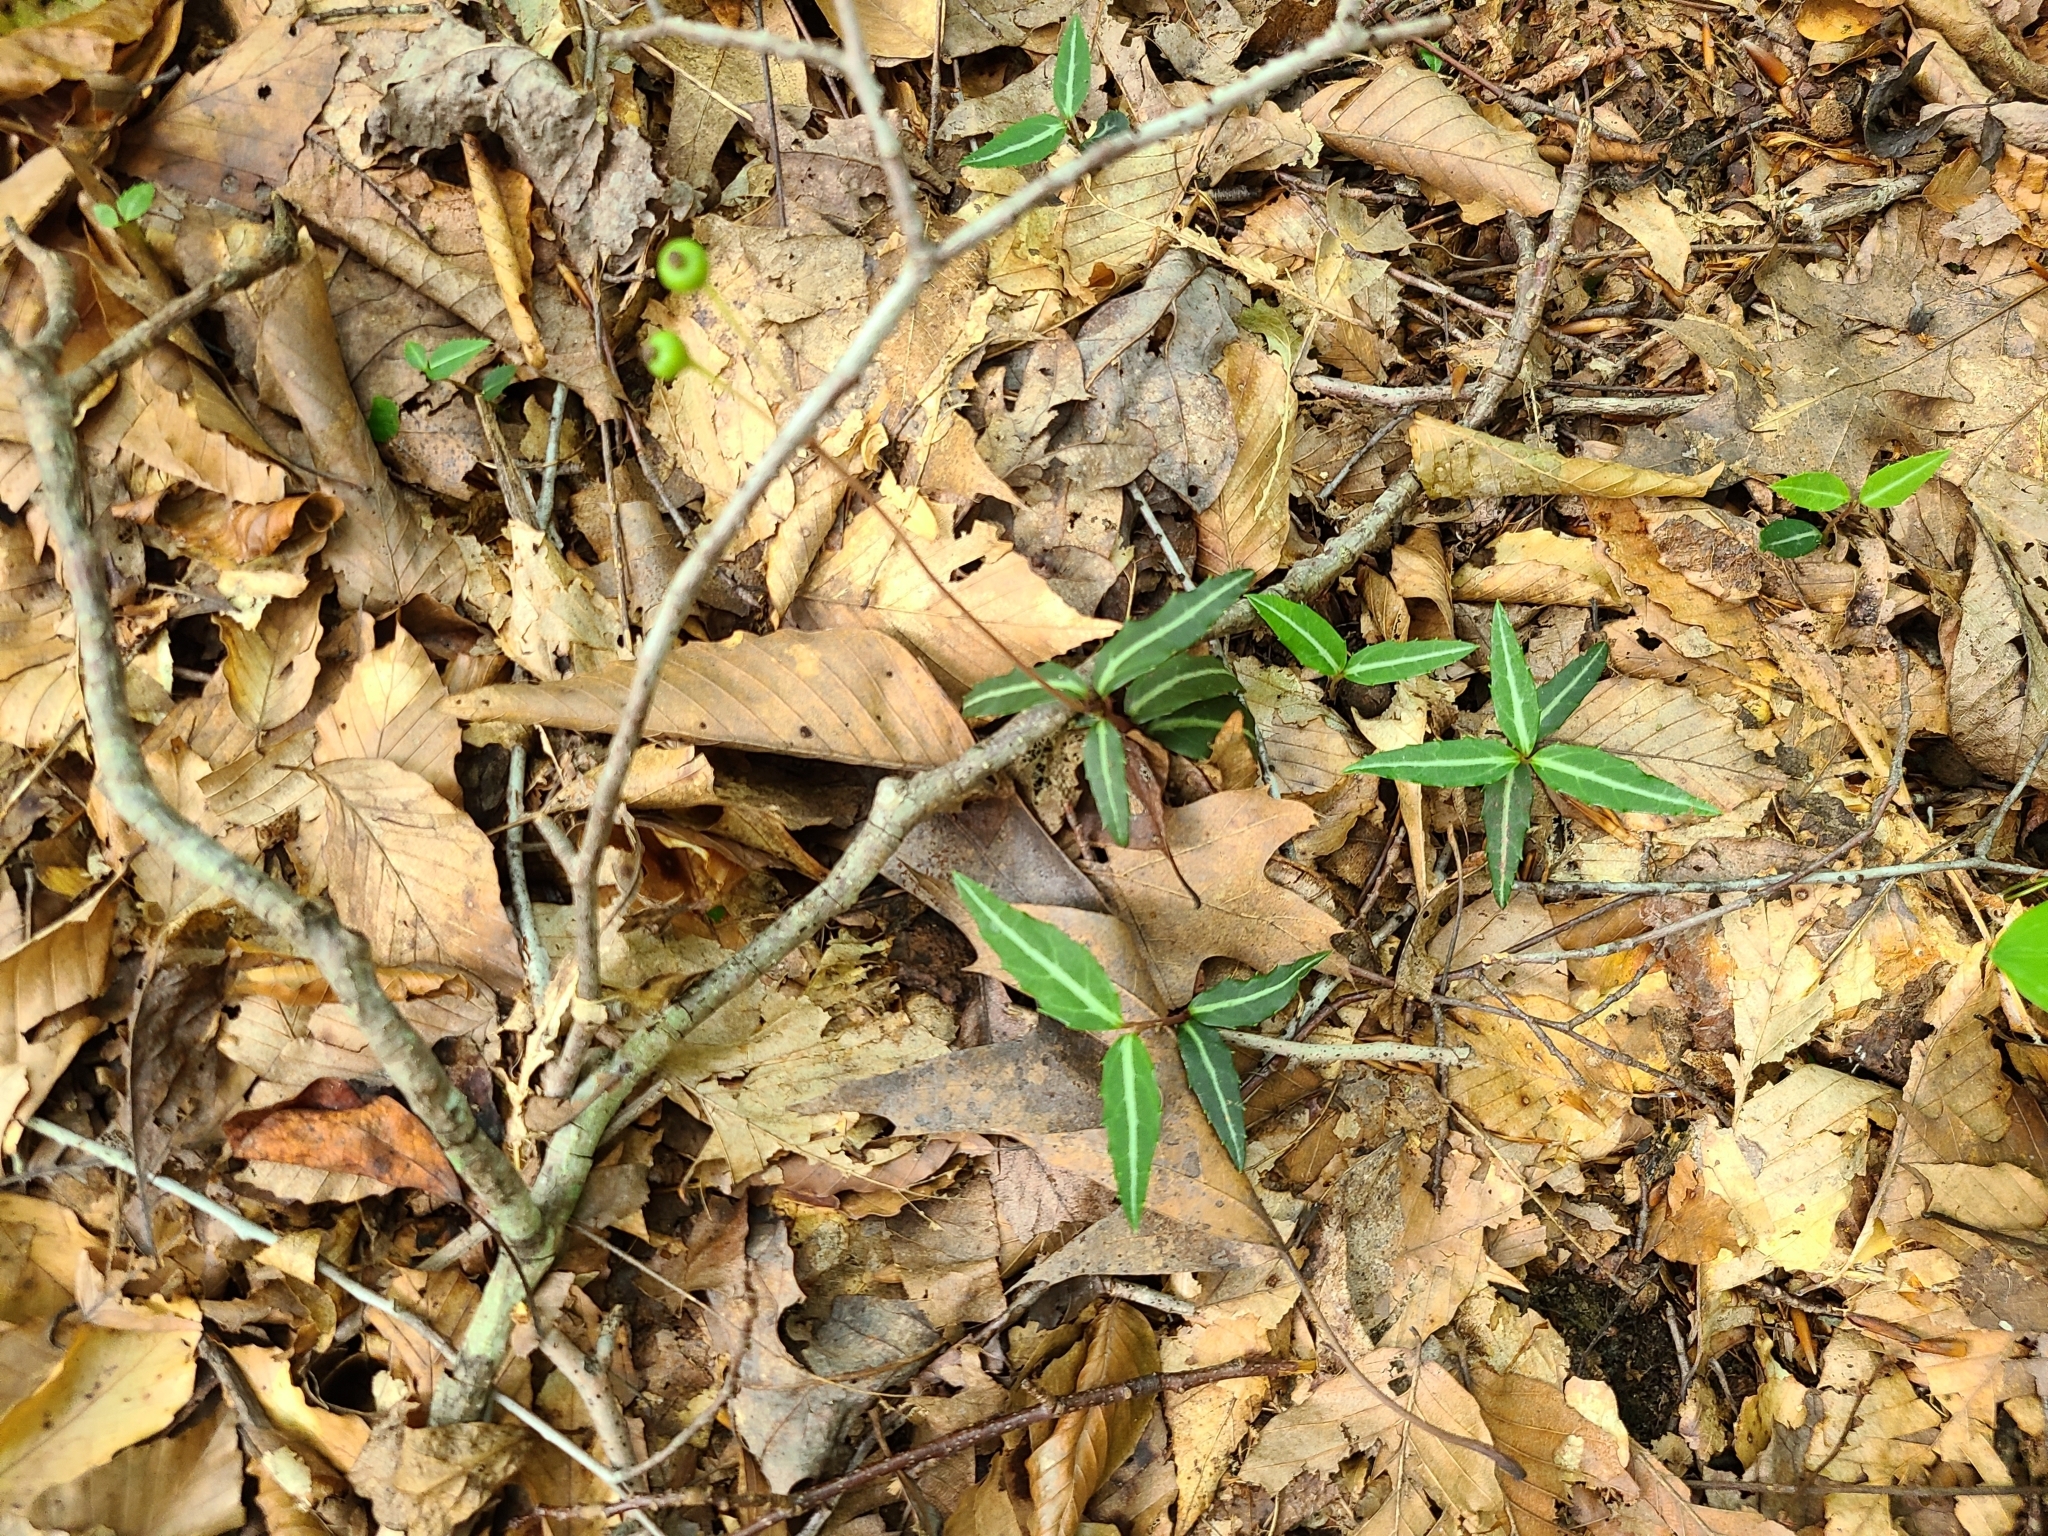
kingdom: Plantae
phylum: Tracheophyta
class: Magnoliopsida
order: Ericales
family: Ericaceae
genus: Chimaphila
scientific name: Chimaphila maculata
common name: Spotted pipsissewa
